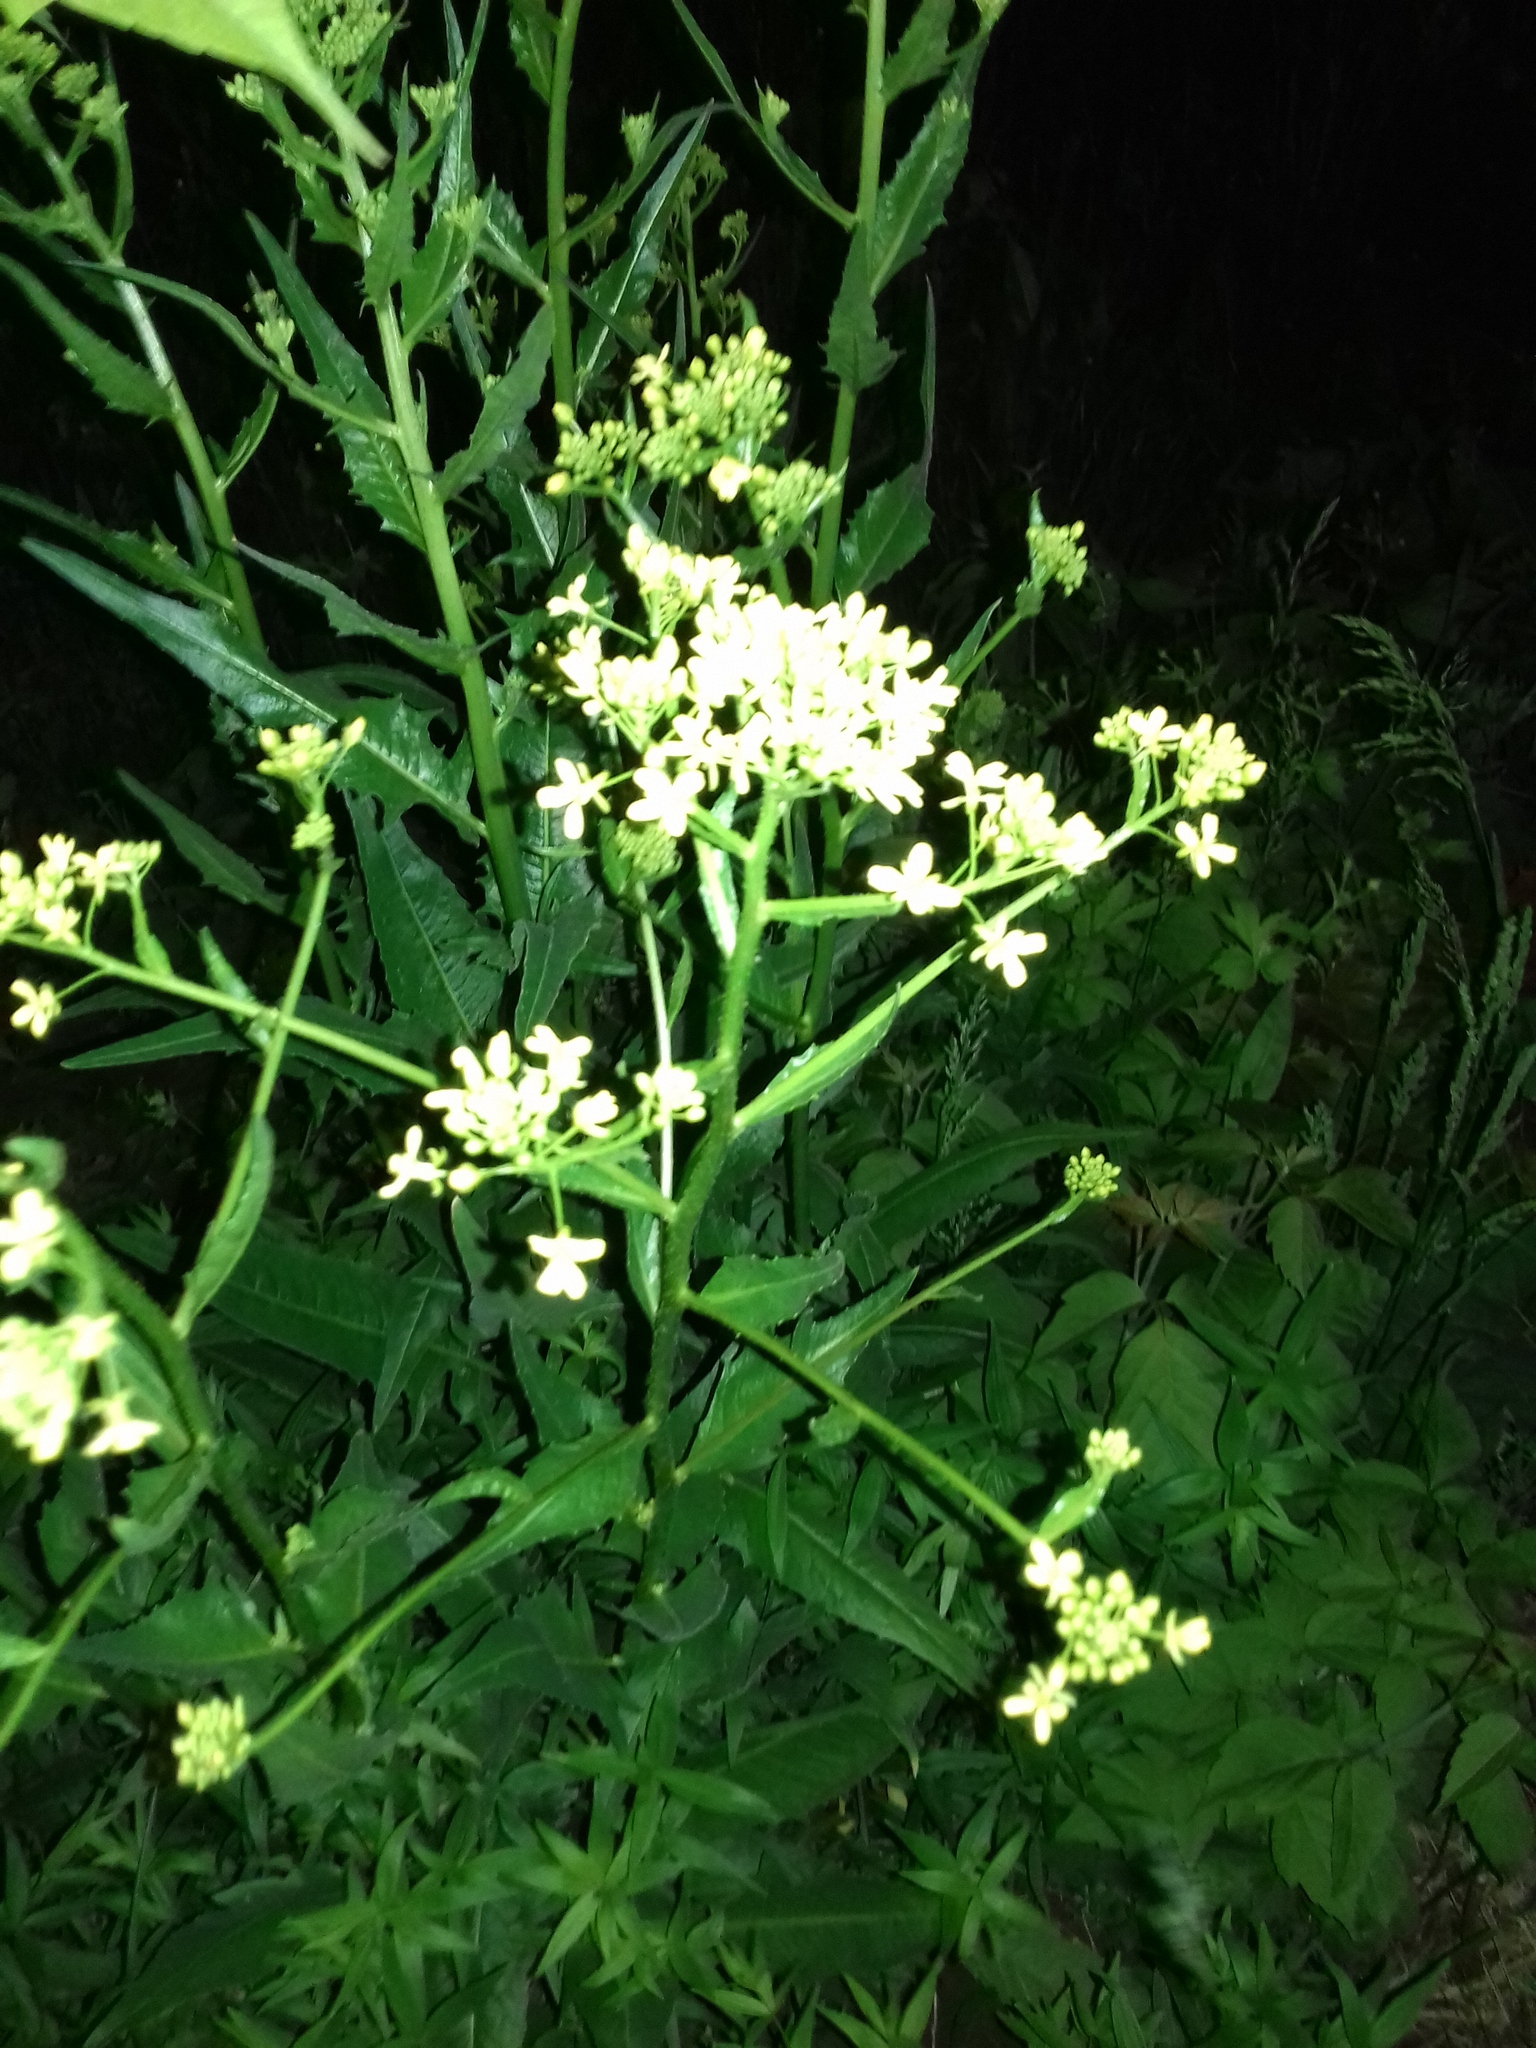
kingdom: Plantae
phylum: Tracheophyta
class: Magnoliopsida
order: Brassicales
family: Brassicaceae
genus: Bunias
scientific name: Bunias orientalis
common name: Warty-cabbage
